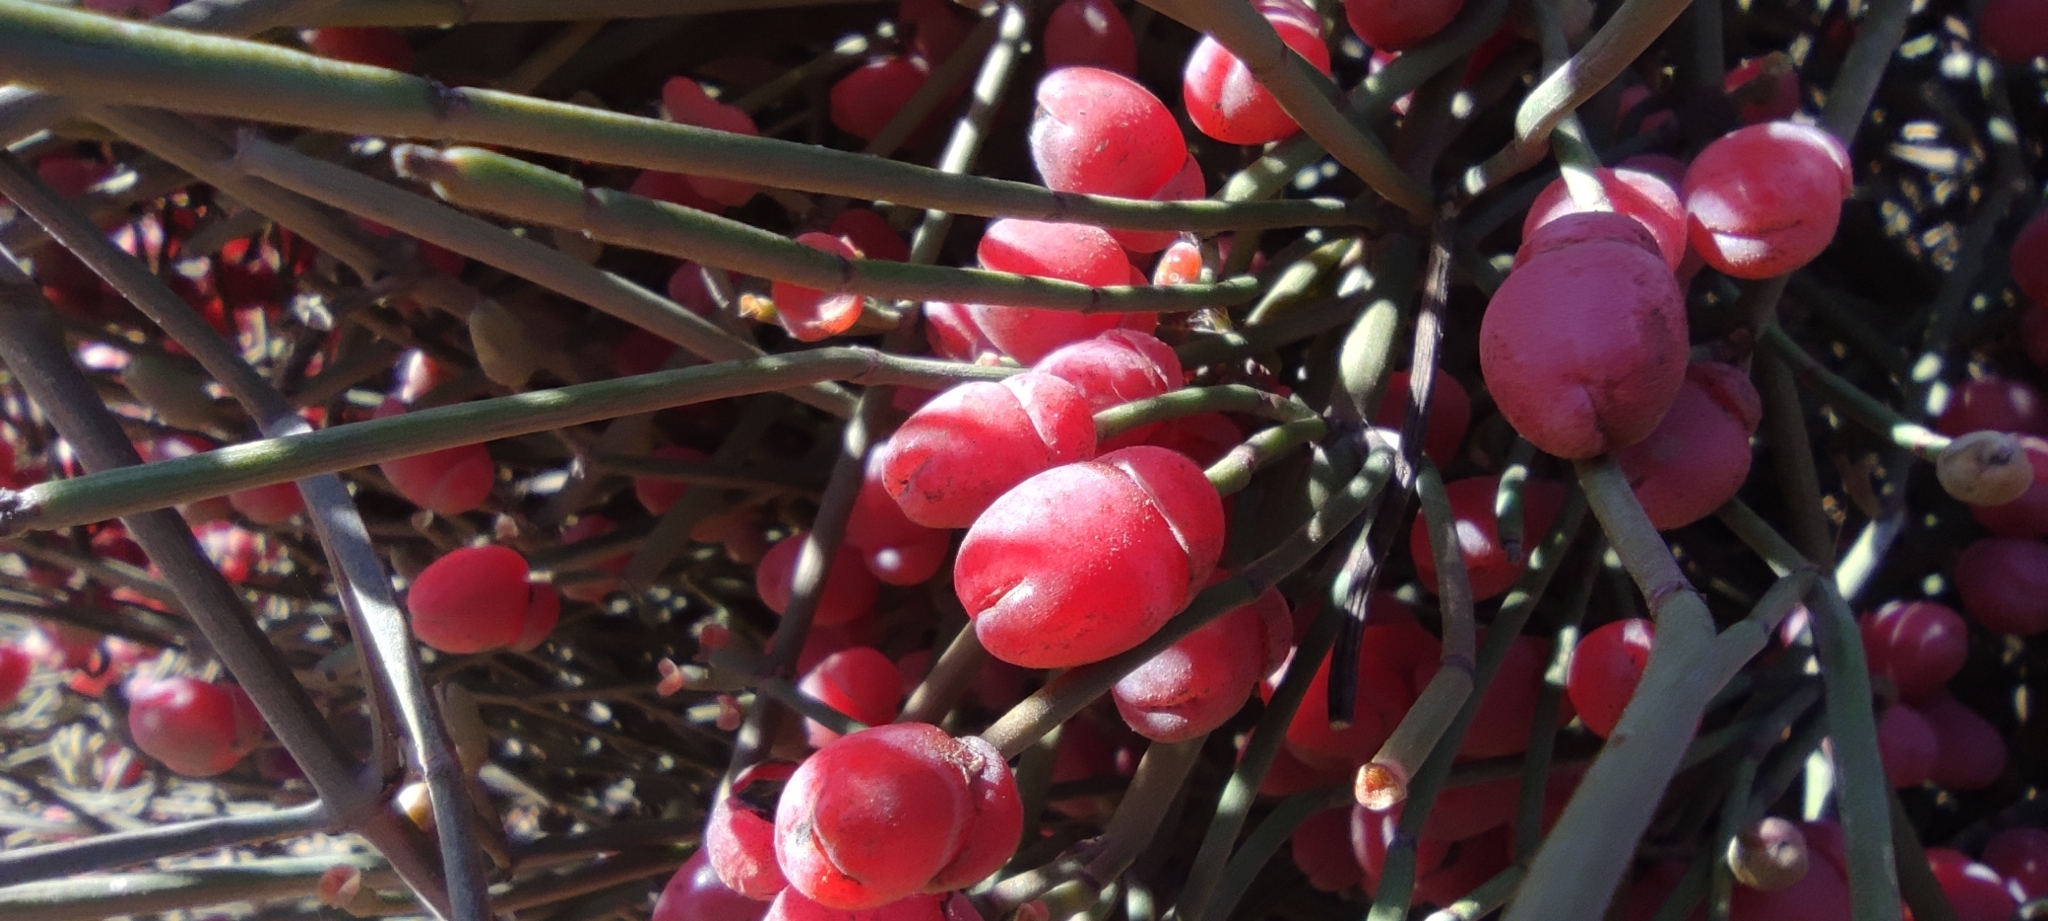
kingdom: Plantae
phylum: Tracheophyta
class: Gnetopsida
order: Ephedrales
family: Ephedraceae
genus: Ephedra
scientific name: Ephedra fragilis
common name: Joint pine
